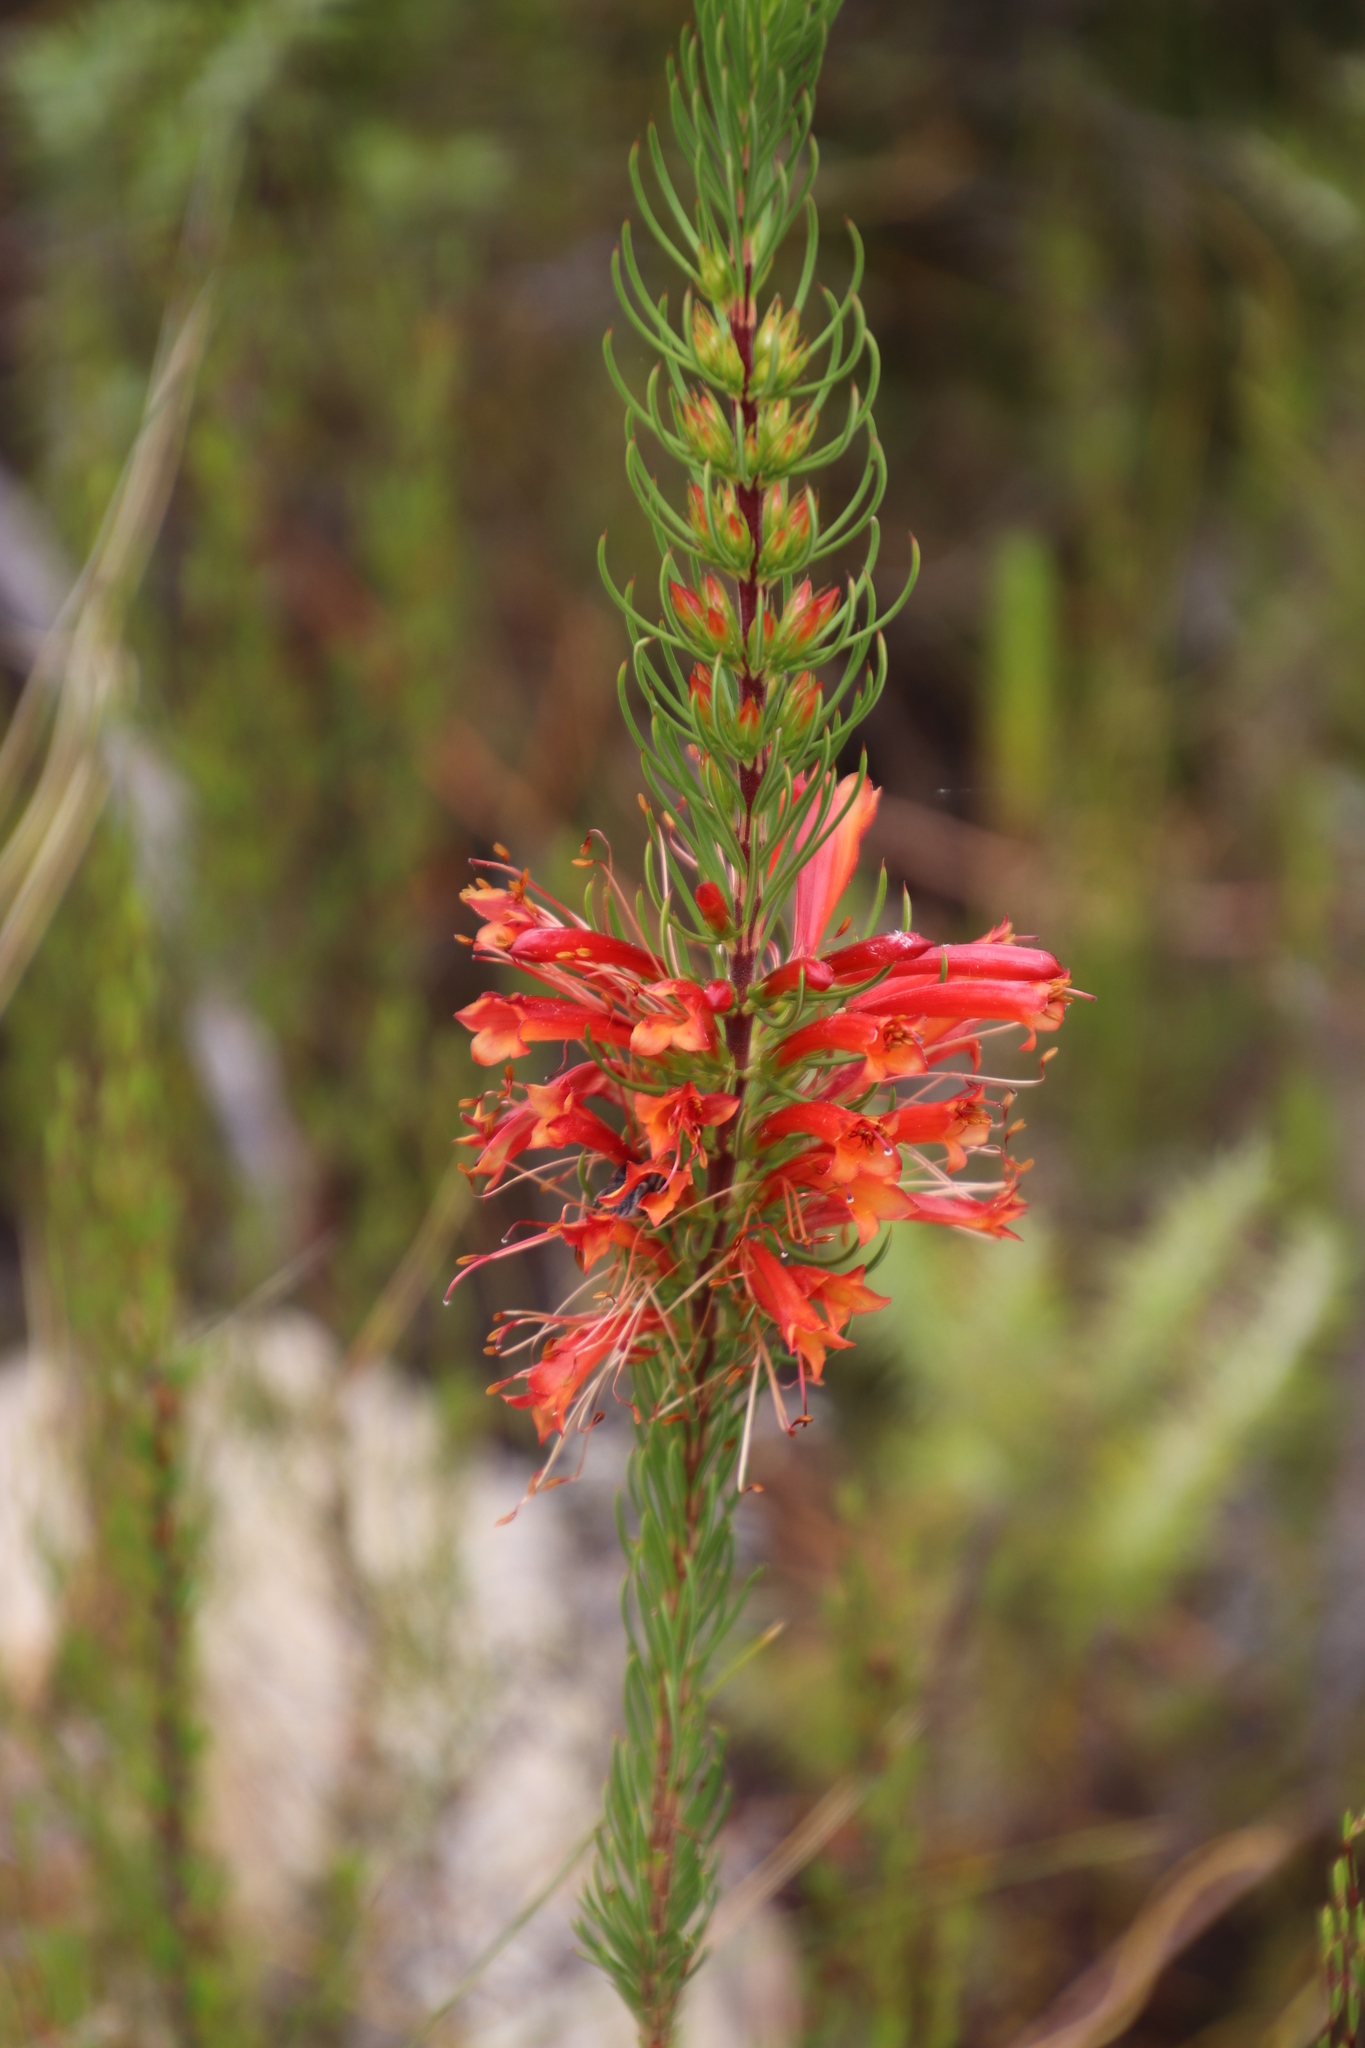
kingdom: Plantae
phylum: Tracheophyta
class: Magnoliopsida
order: Ericales
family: Ericaceae
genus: Erica
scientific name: Erica grandiflora
